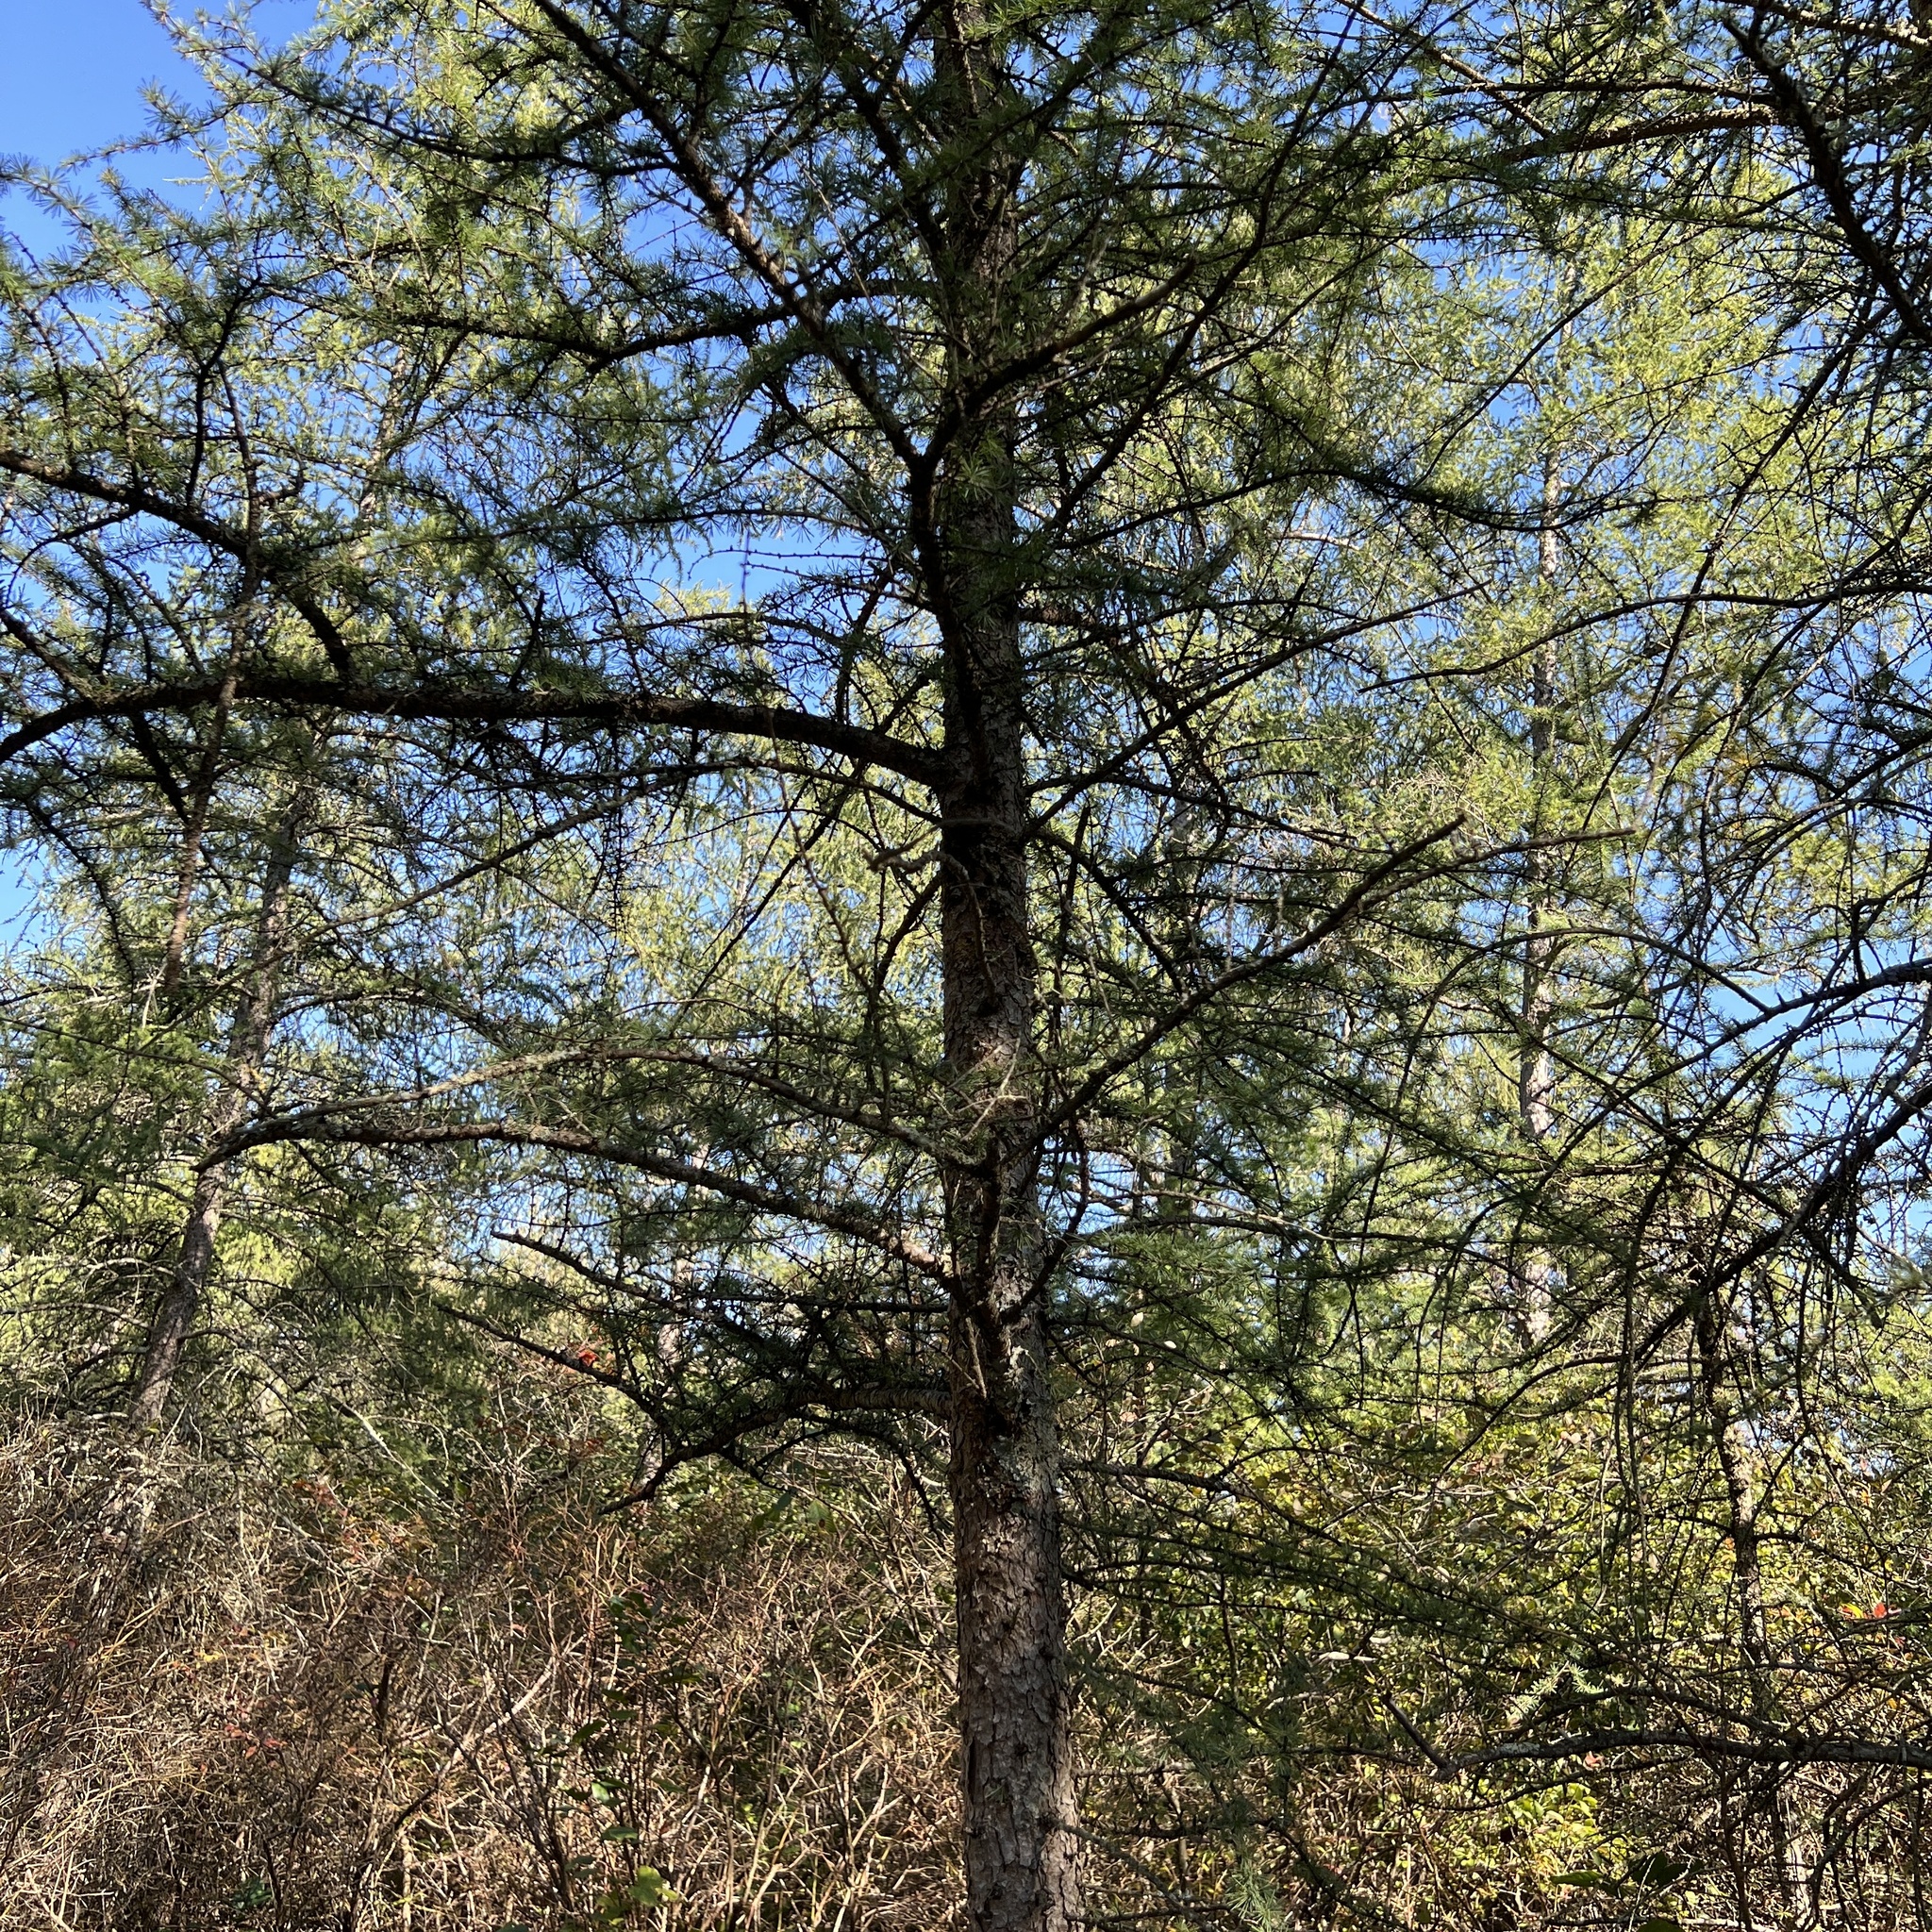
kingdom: Plantae
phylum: Tracheophyta
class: Pinopsida
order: Pinales
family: Pinaceae
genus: Larix
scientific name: Larix laricina
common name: American larch
